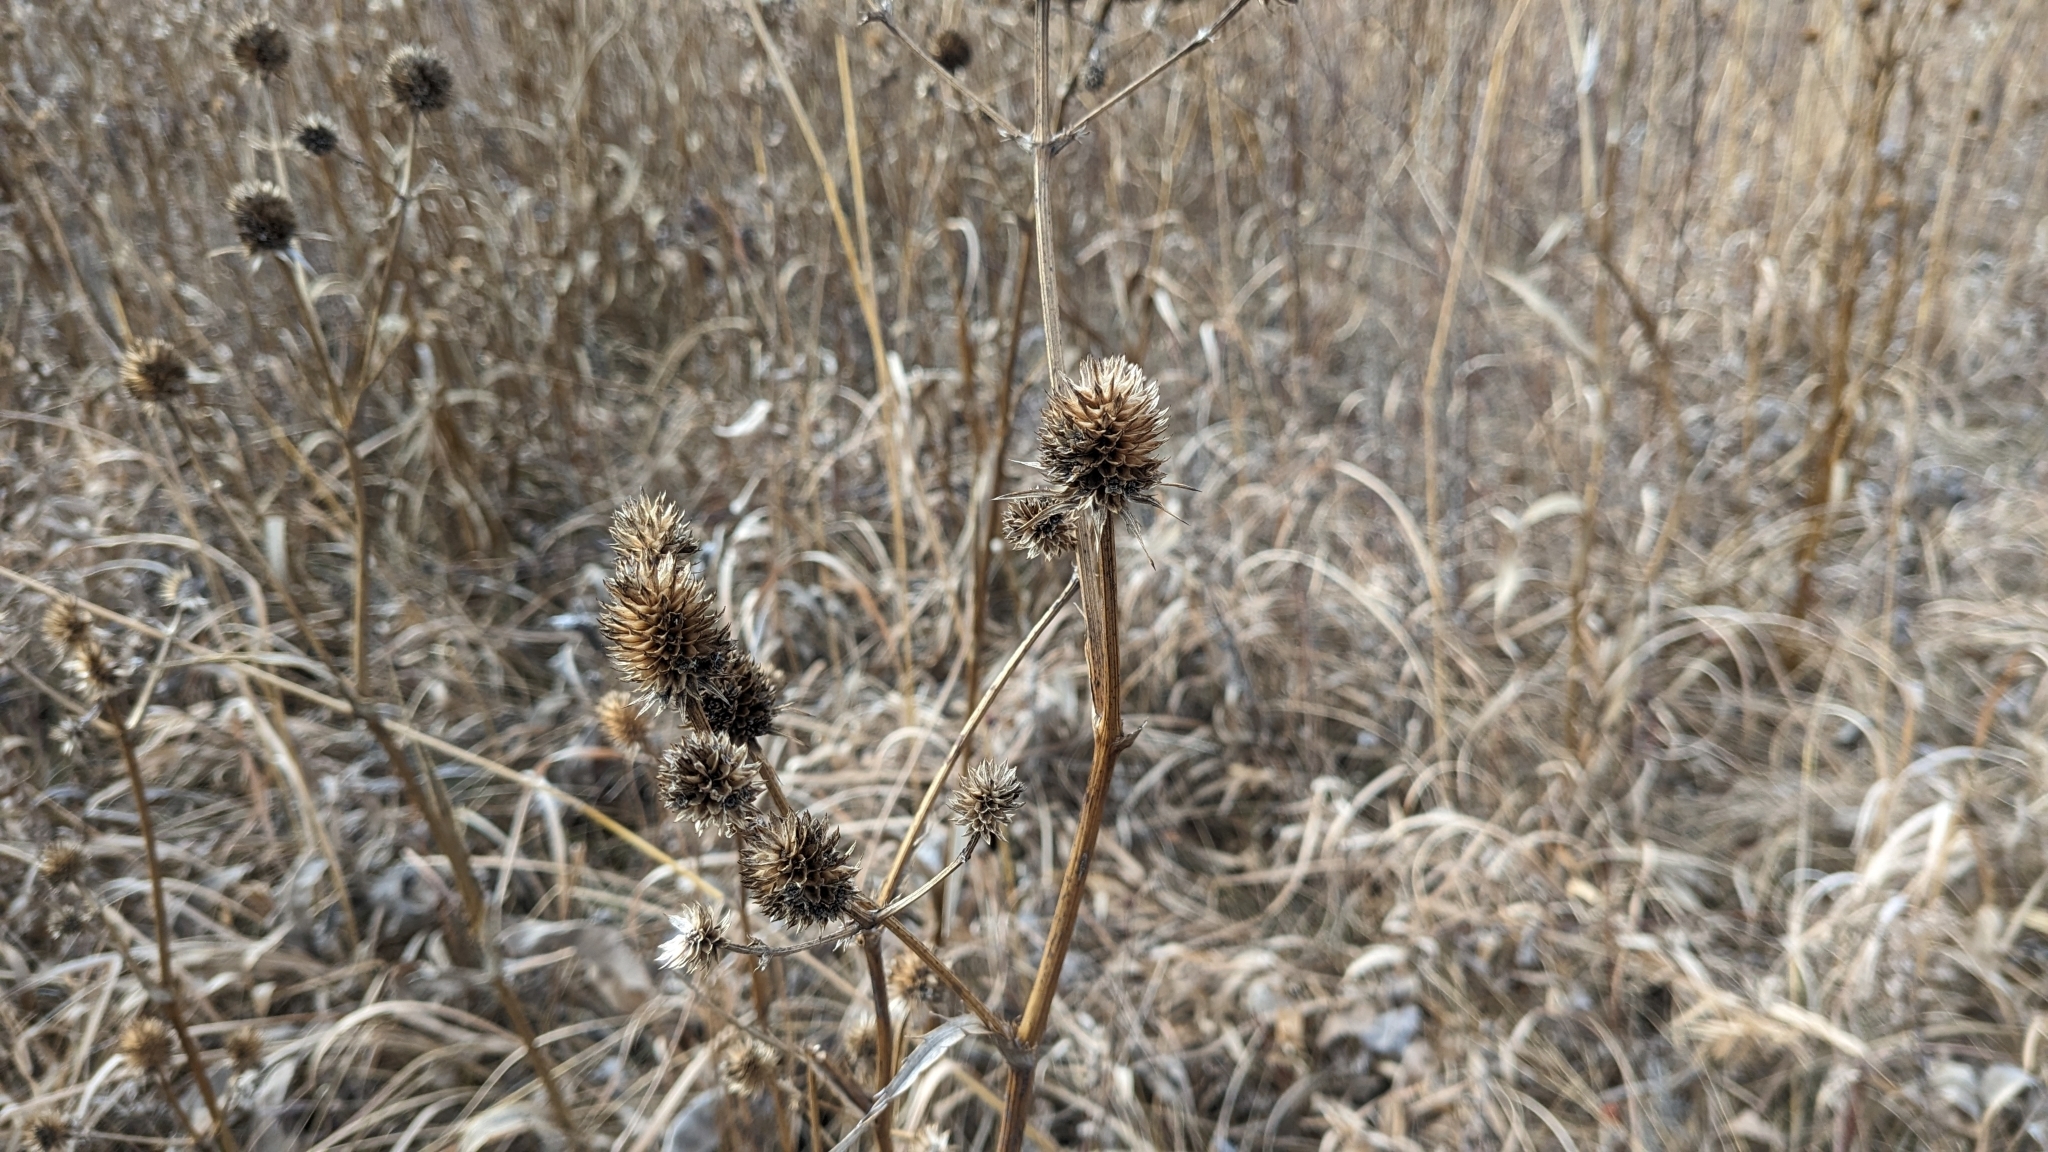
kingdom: Plantae
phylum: Tracheophyta
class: Magnoliopsida
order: Apiales
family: Apiaceae
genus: Eryngium
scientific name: Eryngium yuccifolium
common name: Button eryngo
